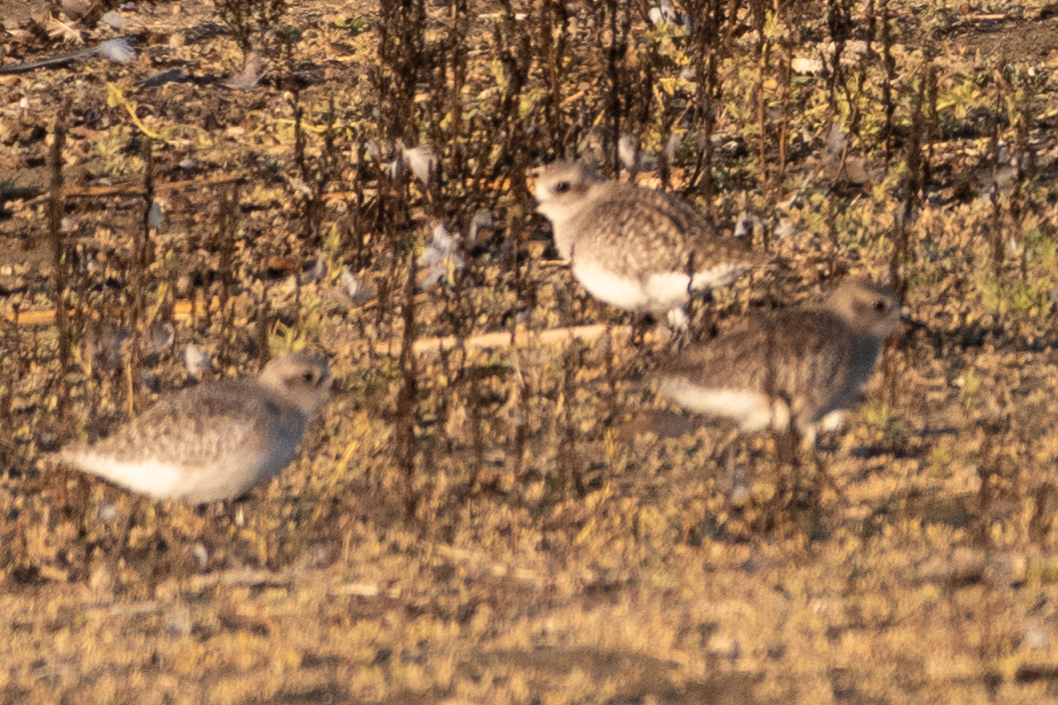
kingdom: Animalia
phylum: Chordata
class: Aves
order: Charadriiformes
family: Charadriidae
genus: Pluvialis
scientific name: Pluvialis squatarola
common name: Grey plover
